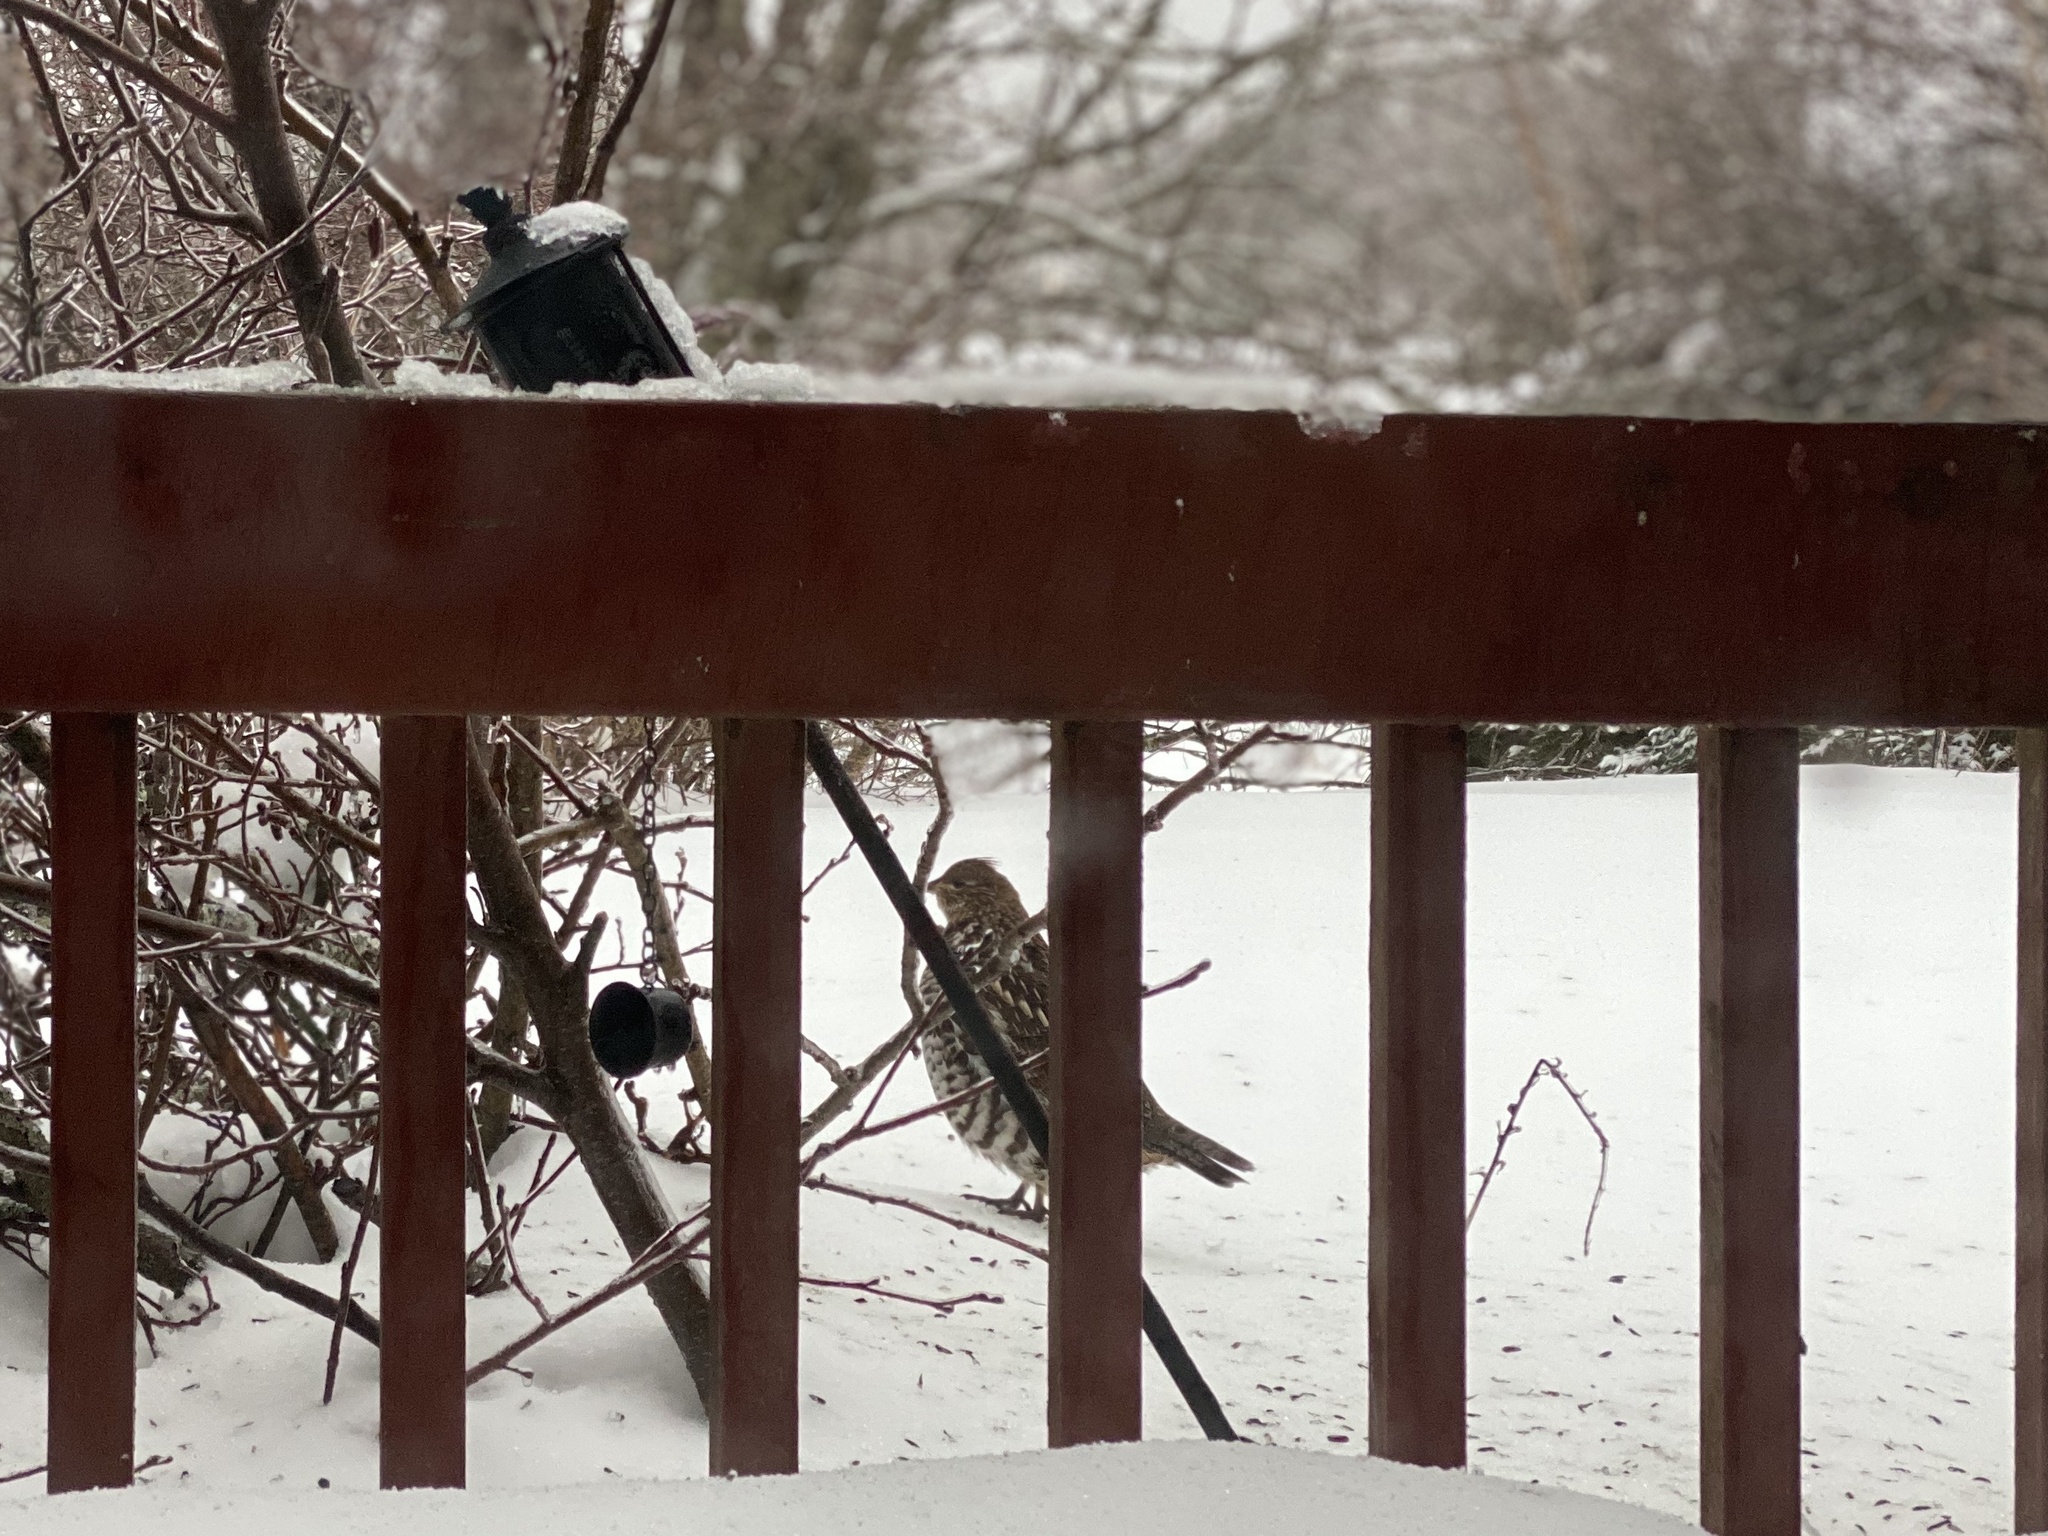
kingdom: Animalia
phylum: Chordata
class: Aves
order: Galliformes
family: Phasianidae
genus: Bonasa
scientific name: Bonasa umbellus
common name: Ruffed grouse
